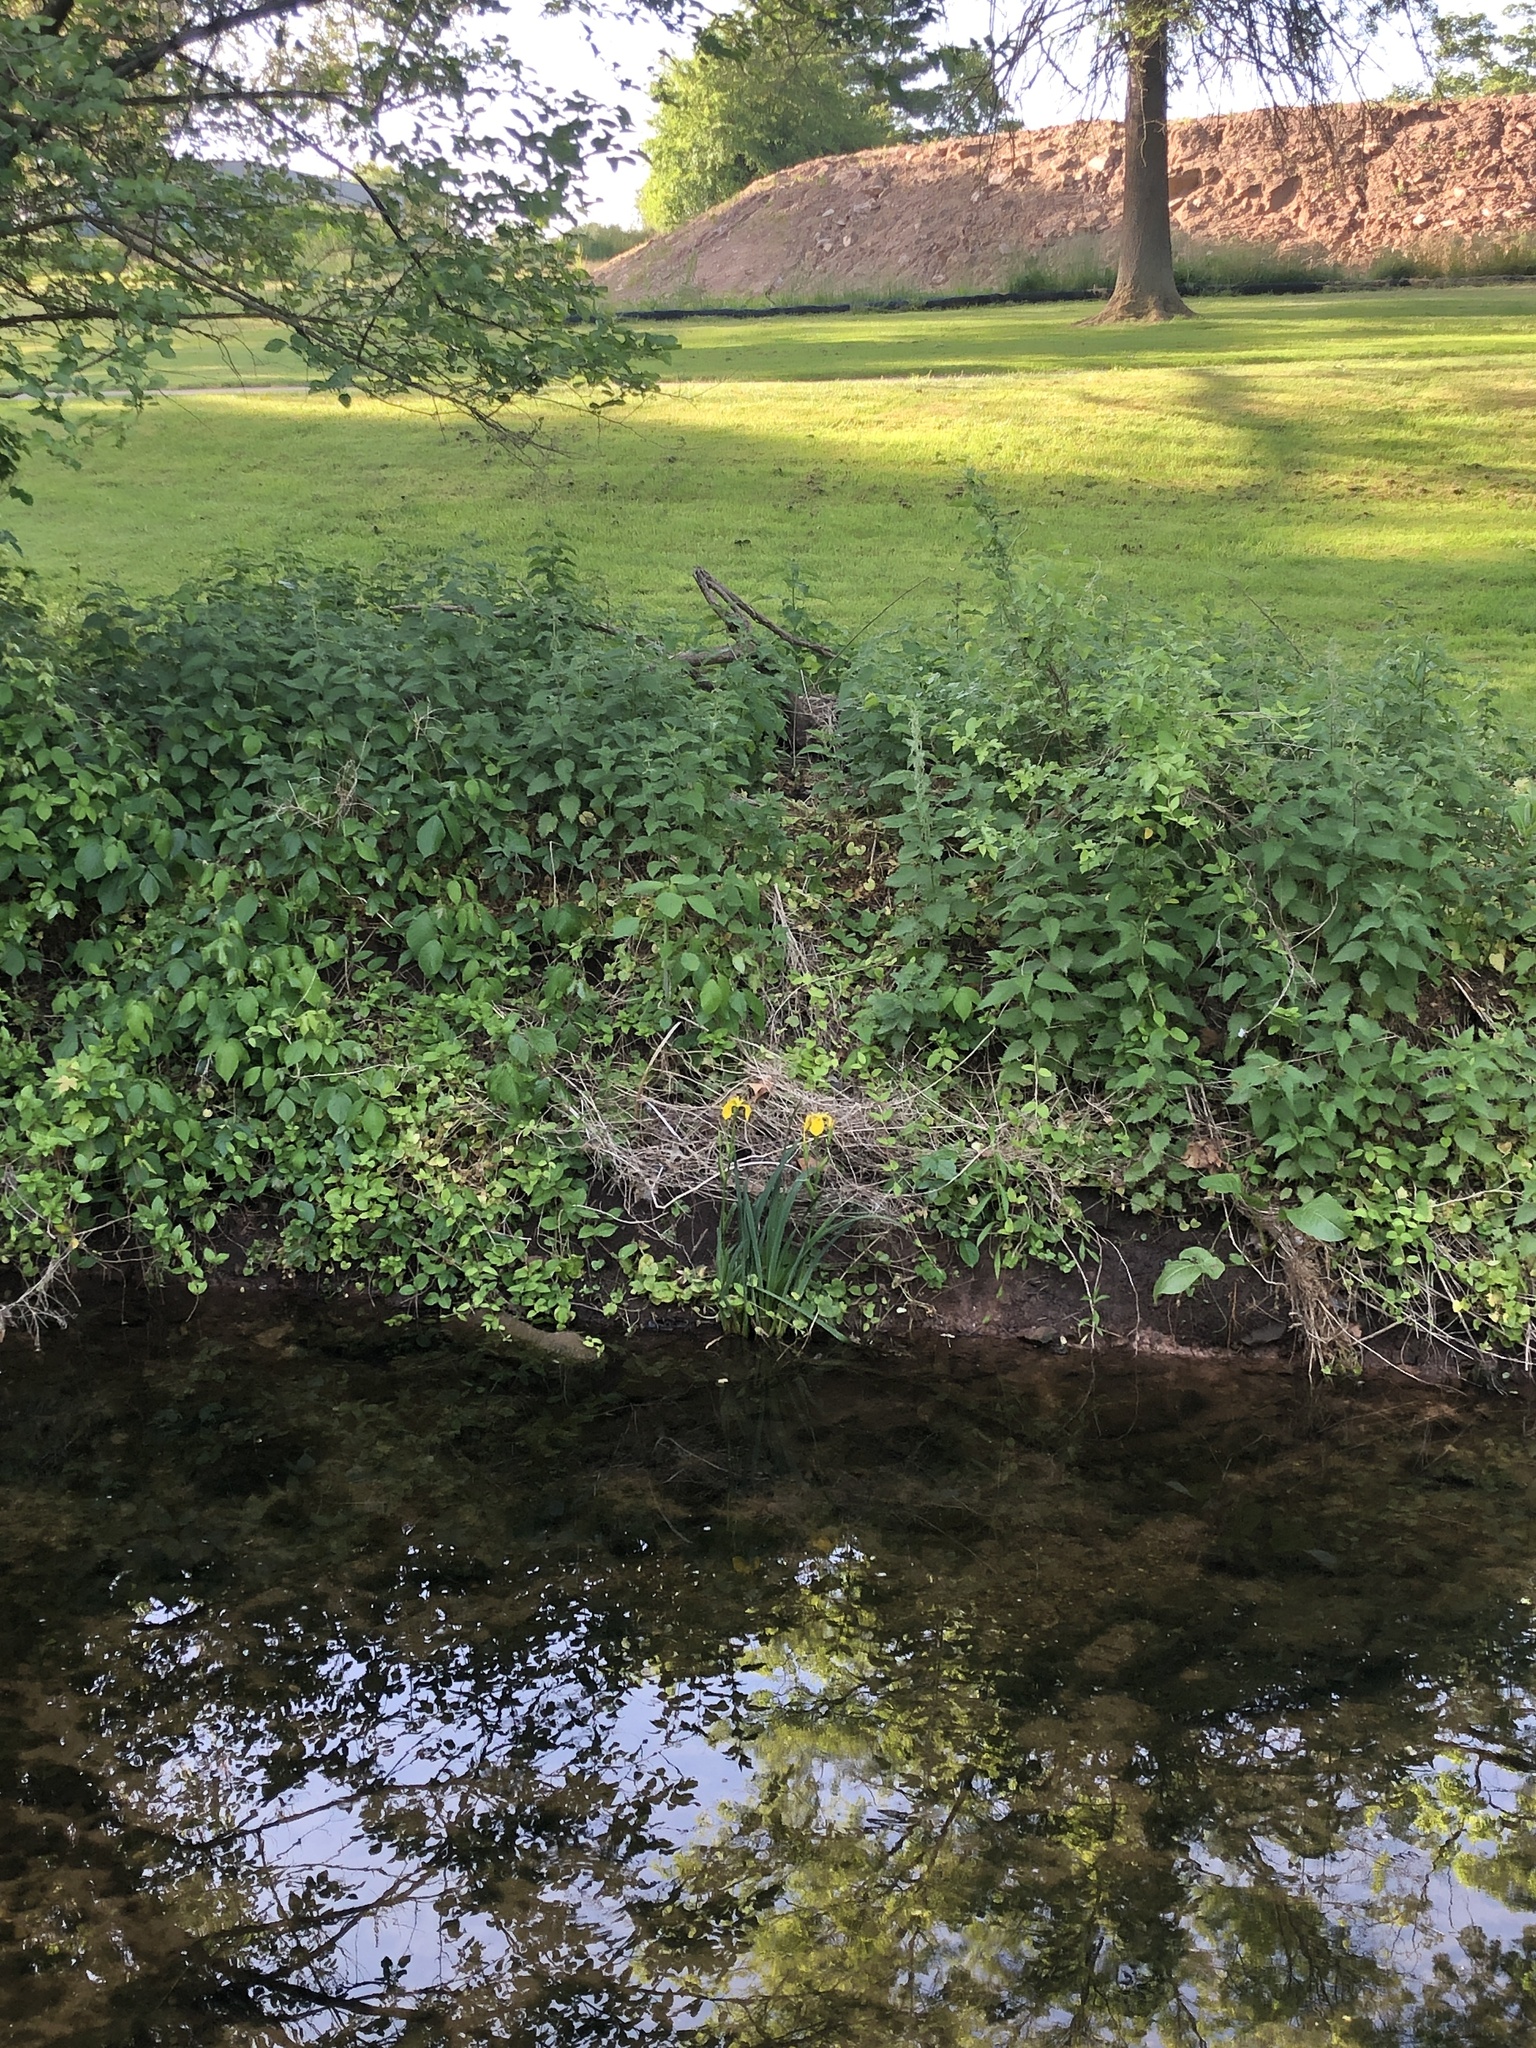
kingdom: Plantae
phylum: Tracheophyta
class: Liliopsida
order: Asparagales
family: Iridaceae
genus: Iris
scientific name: Iris pseudacorus
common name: Yellow flag
